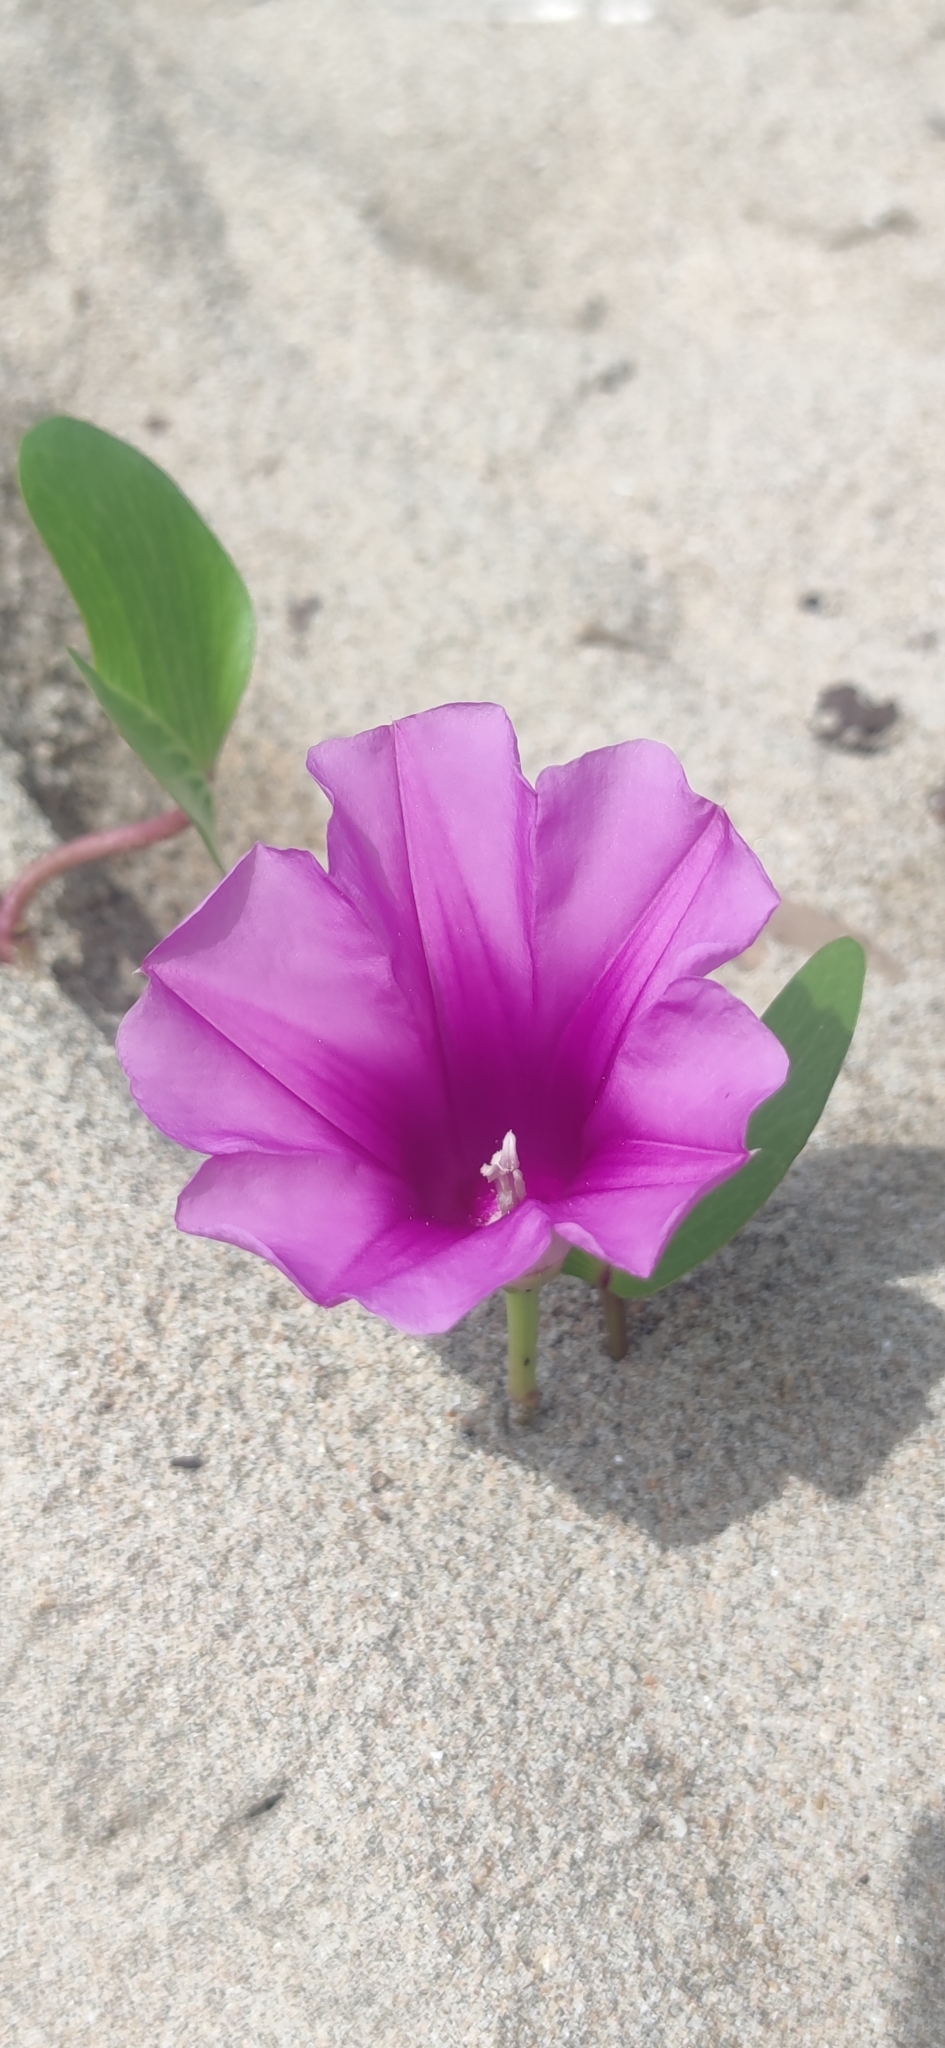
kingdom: Plantae
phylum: Tracheophyta
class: Magnoliopsida
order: Solanales
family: Convolvulaceae
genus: Ipomoea
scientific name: Ipomoea pes-caprae
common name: Beach morning glory
